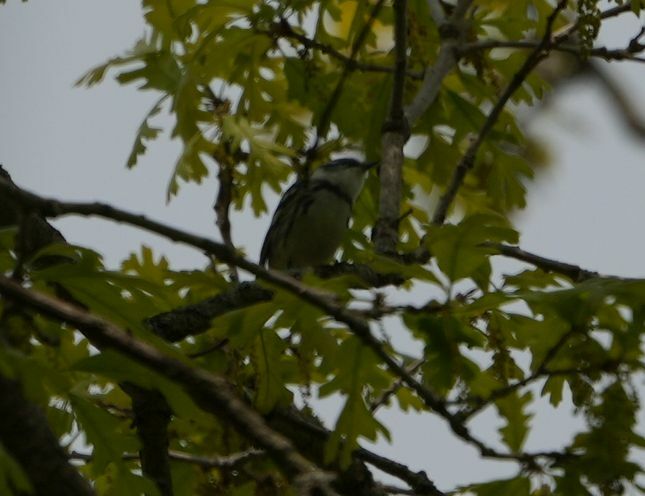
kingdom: Animalia
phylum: Chordata
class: Aves
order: Passeriformes
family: Parulidae
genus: Setophaga
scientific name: Setophaga cerulea
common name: Cerulean warbler
